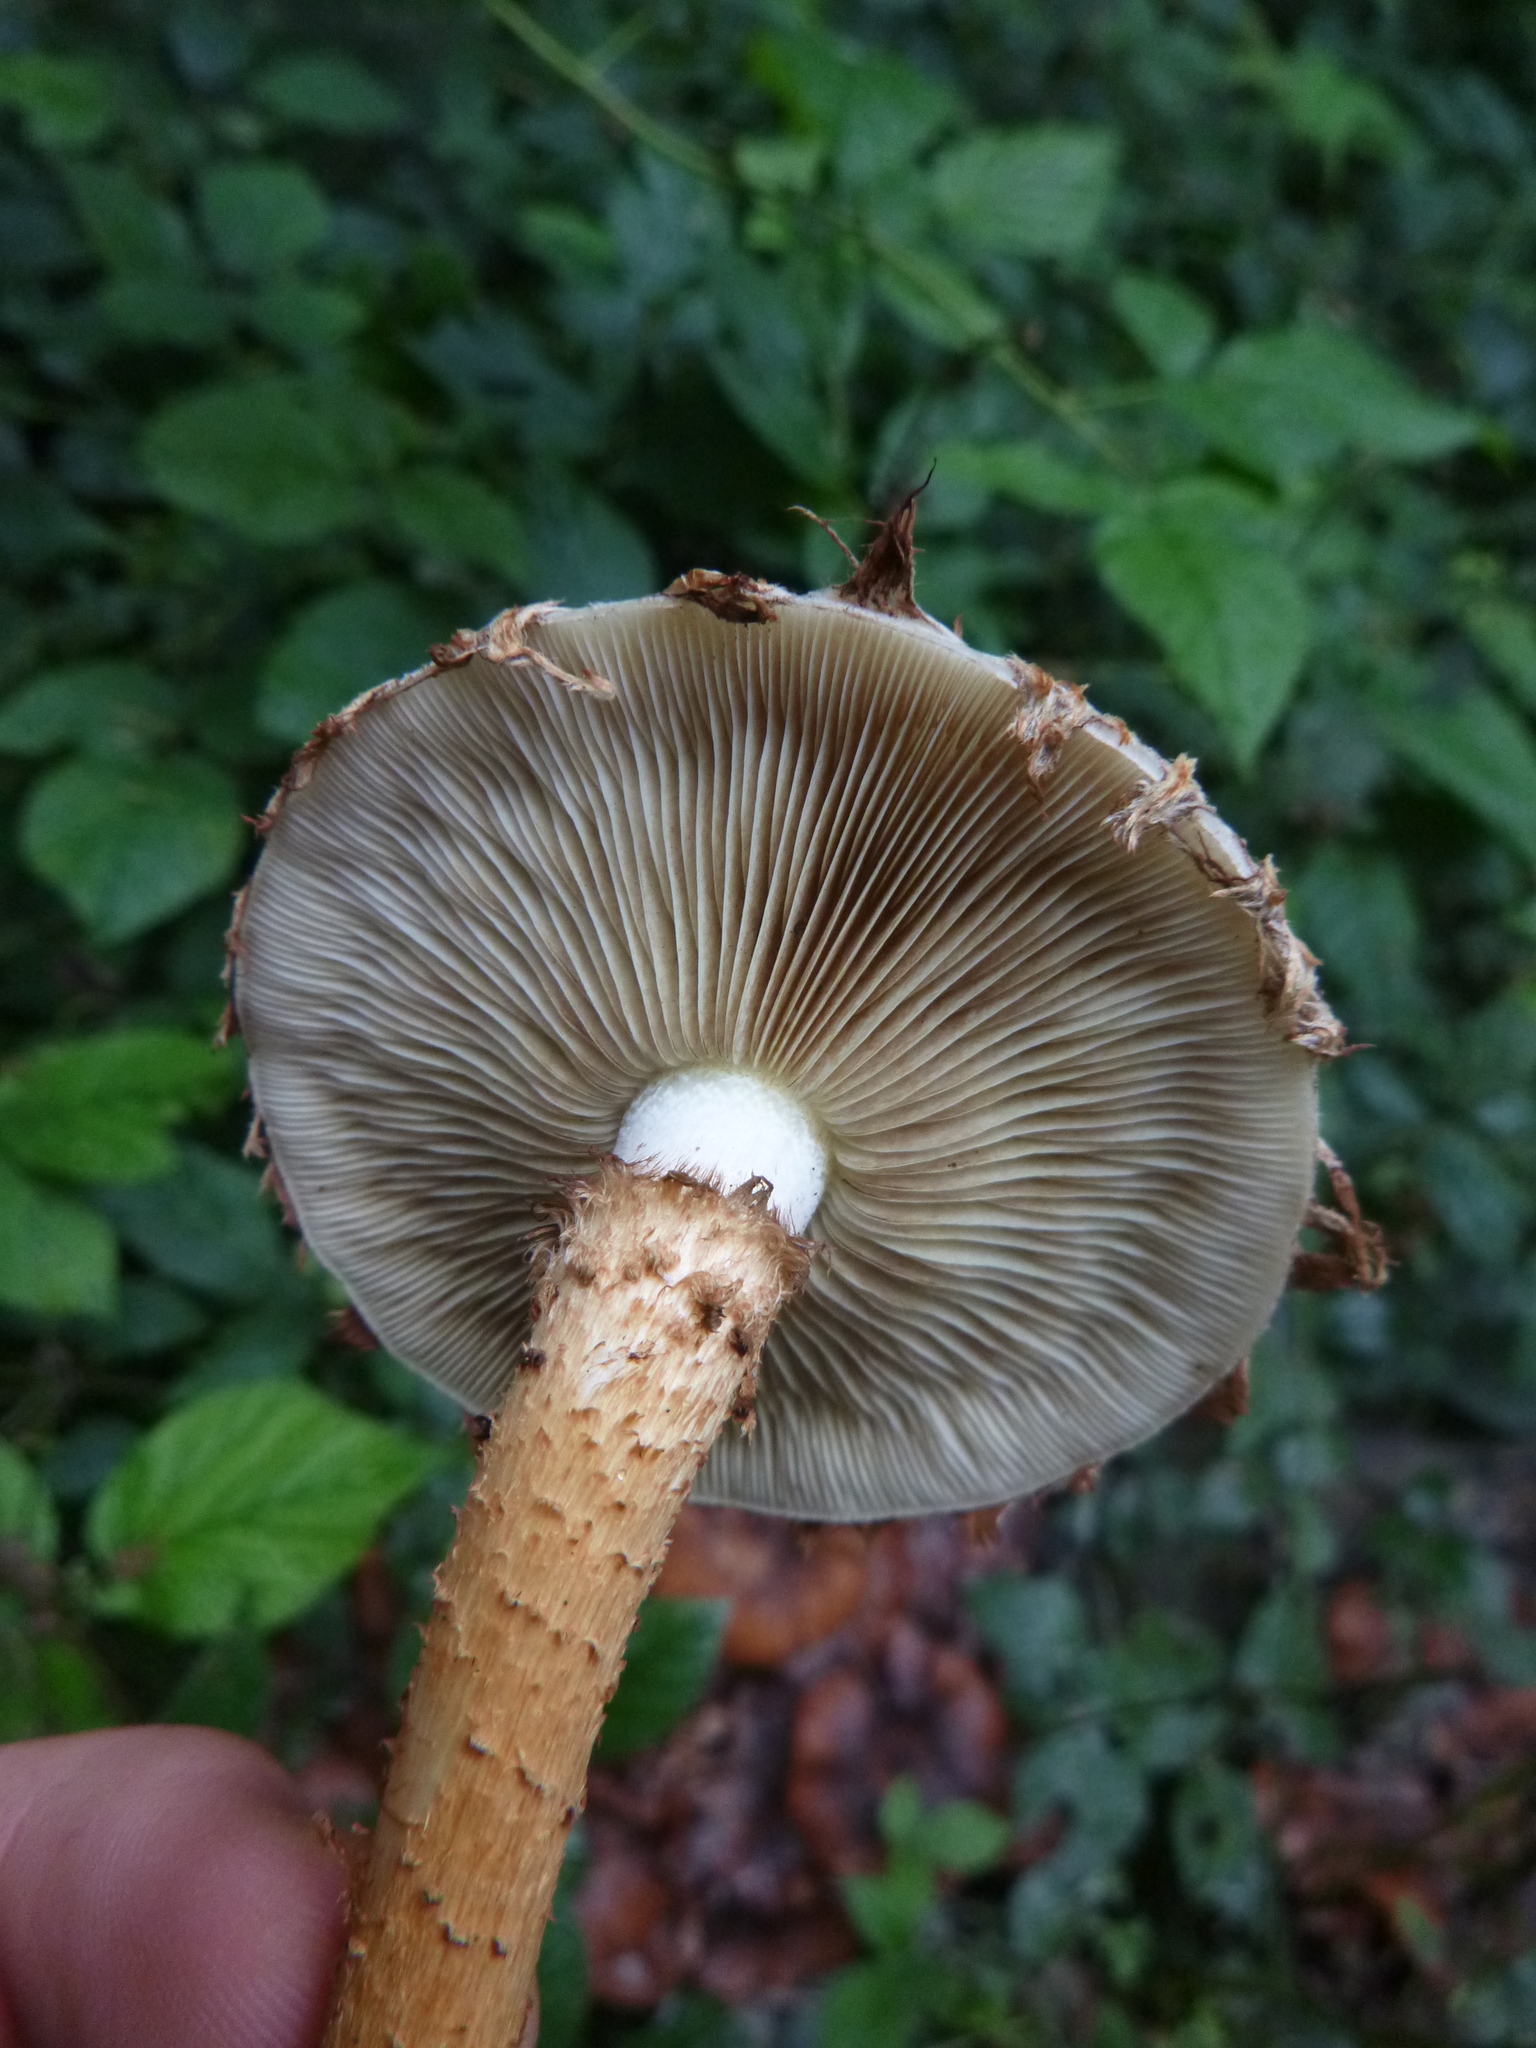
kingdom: Fungi
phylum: Basidiomycota
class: Agaricomycetes
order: Agaricales
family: Strophariaceae
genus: Pholiota
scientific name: Pholiota squarrosa
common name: Shaggy pholiota
